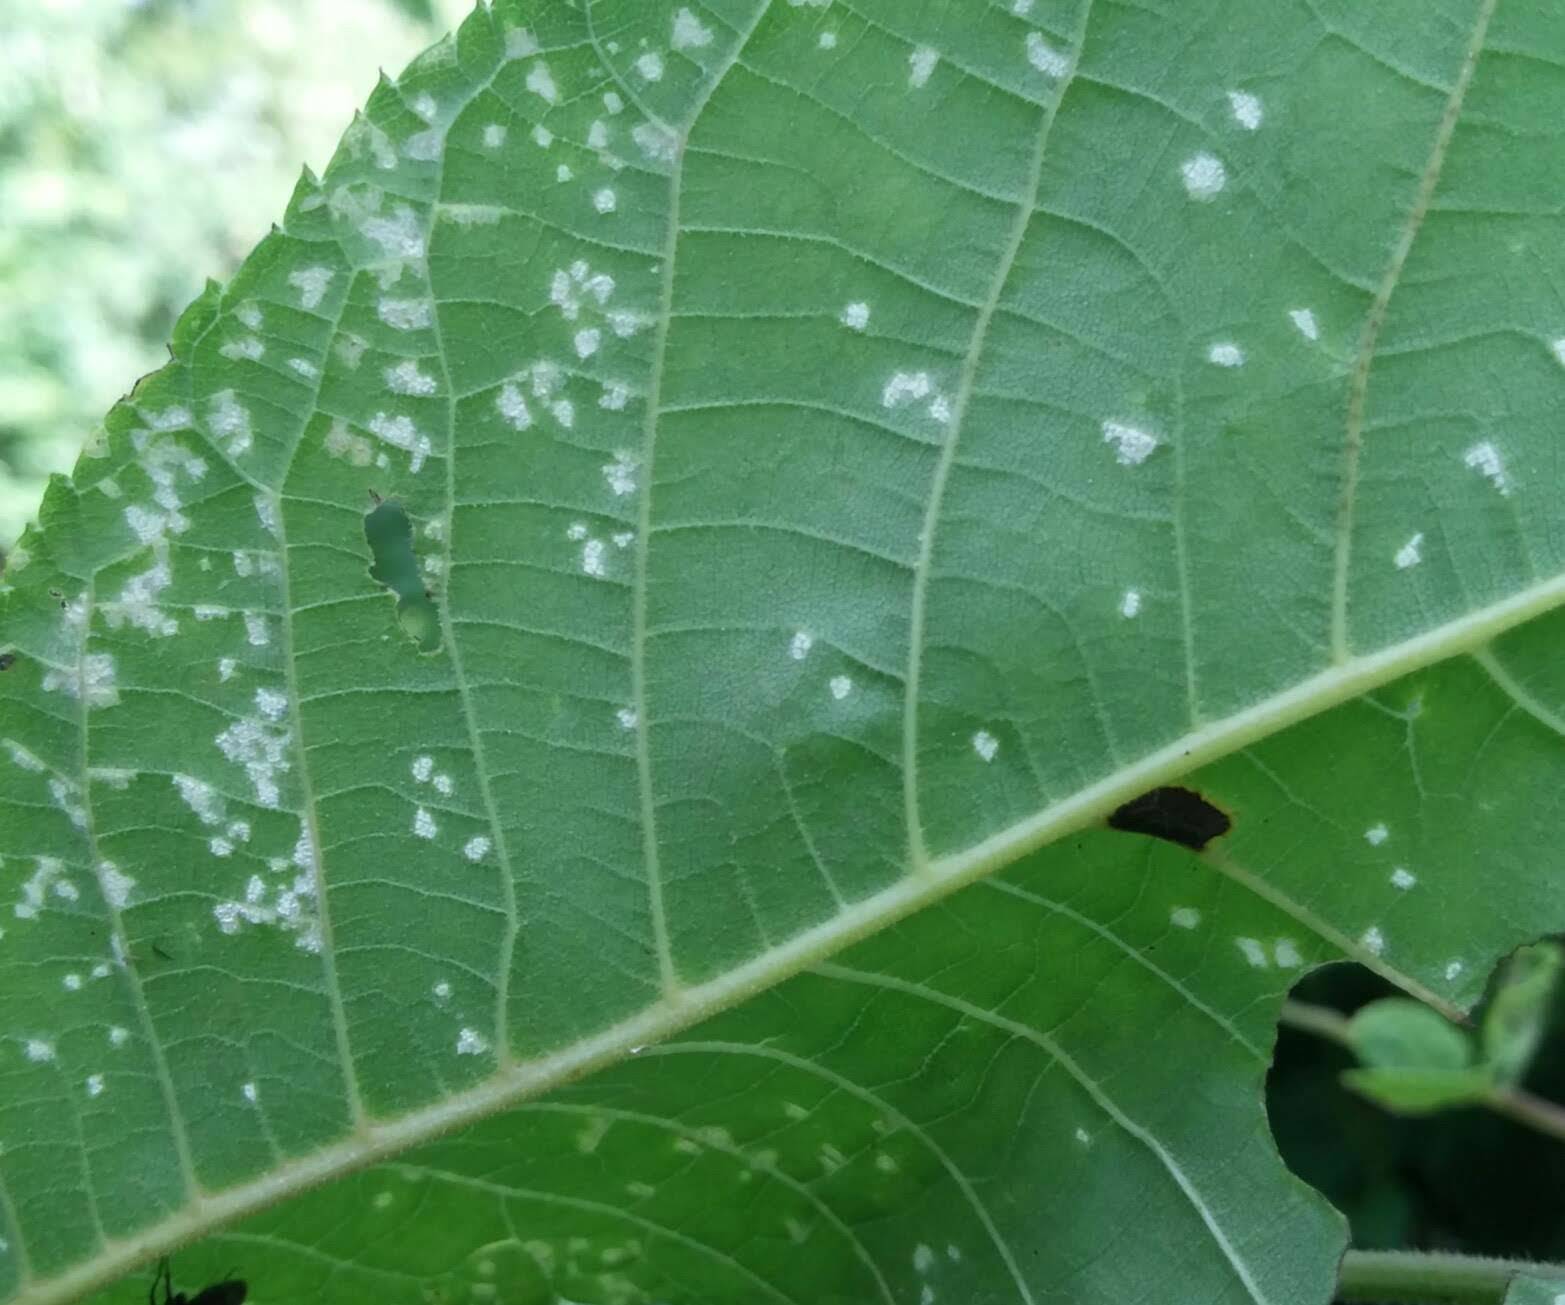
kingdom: Fungi
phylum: Basidiomycota
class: Exobasidiomycetes
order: Microstromatales
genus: Pseudomicrostroma
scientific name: Pseudomicrostroma juglandis
